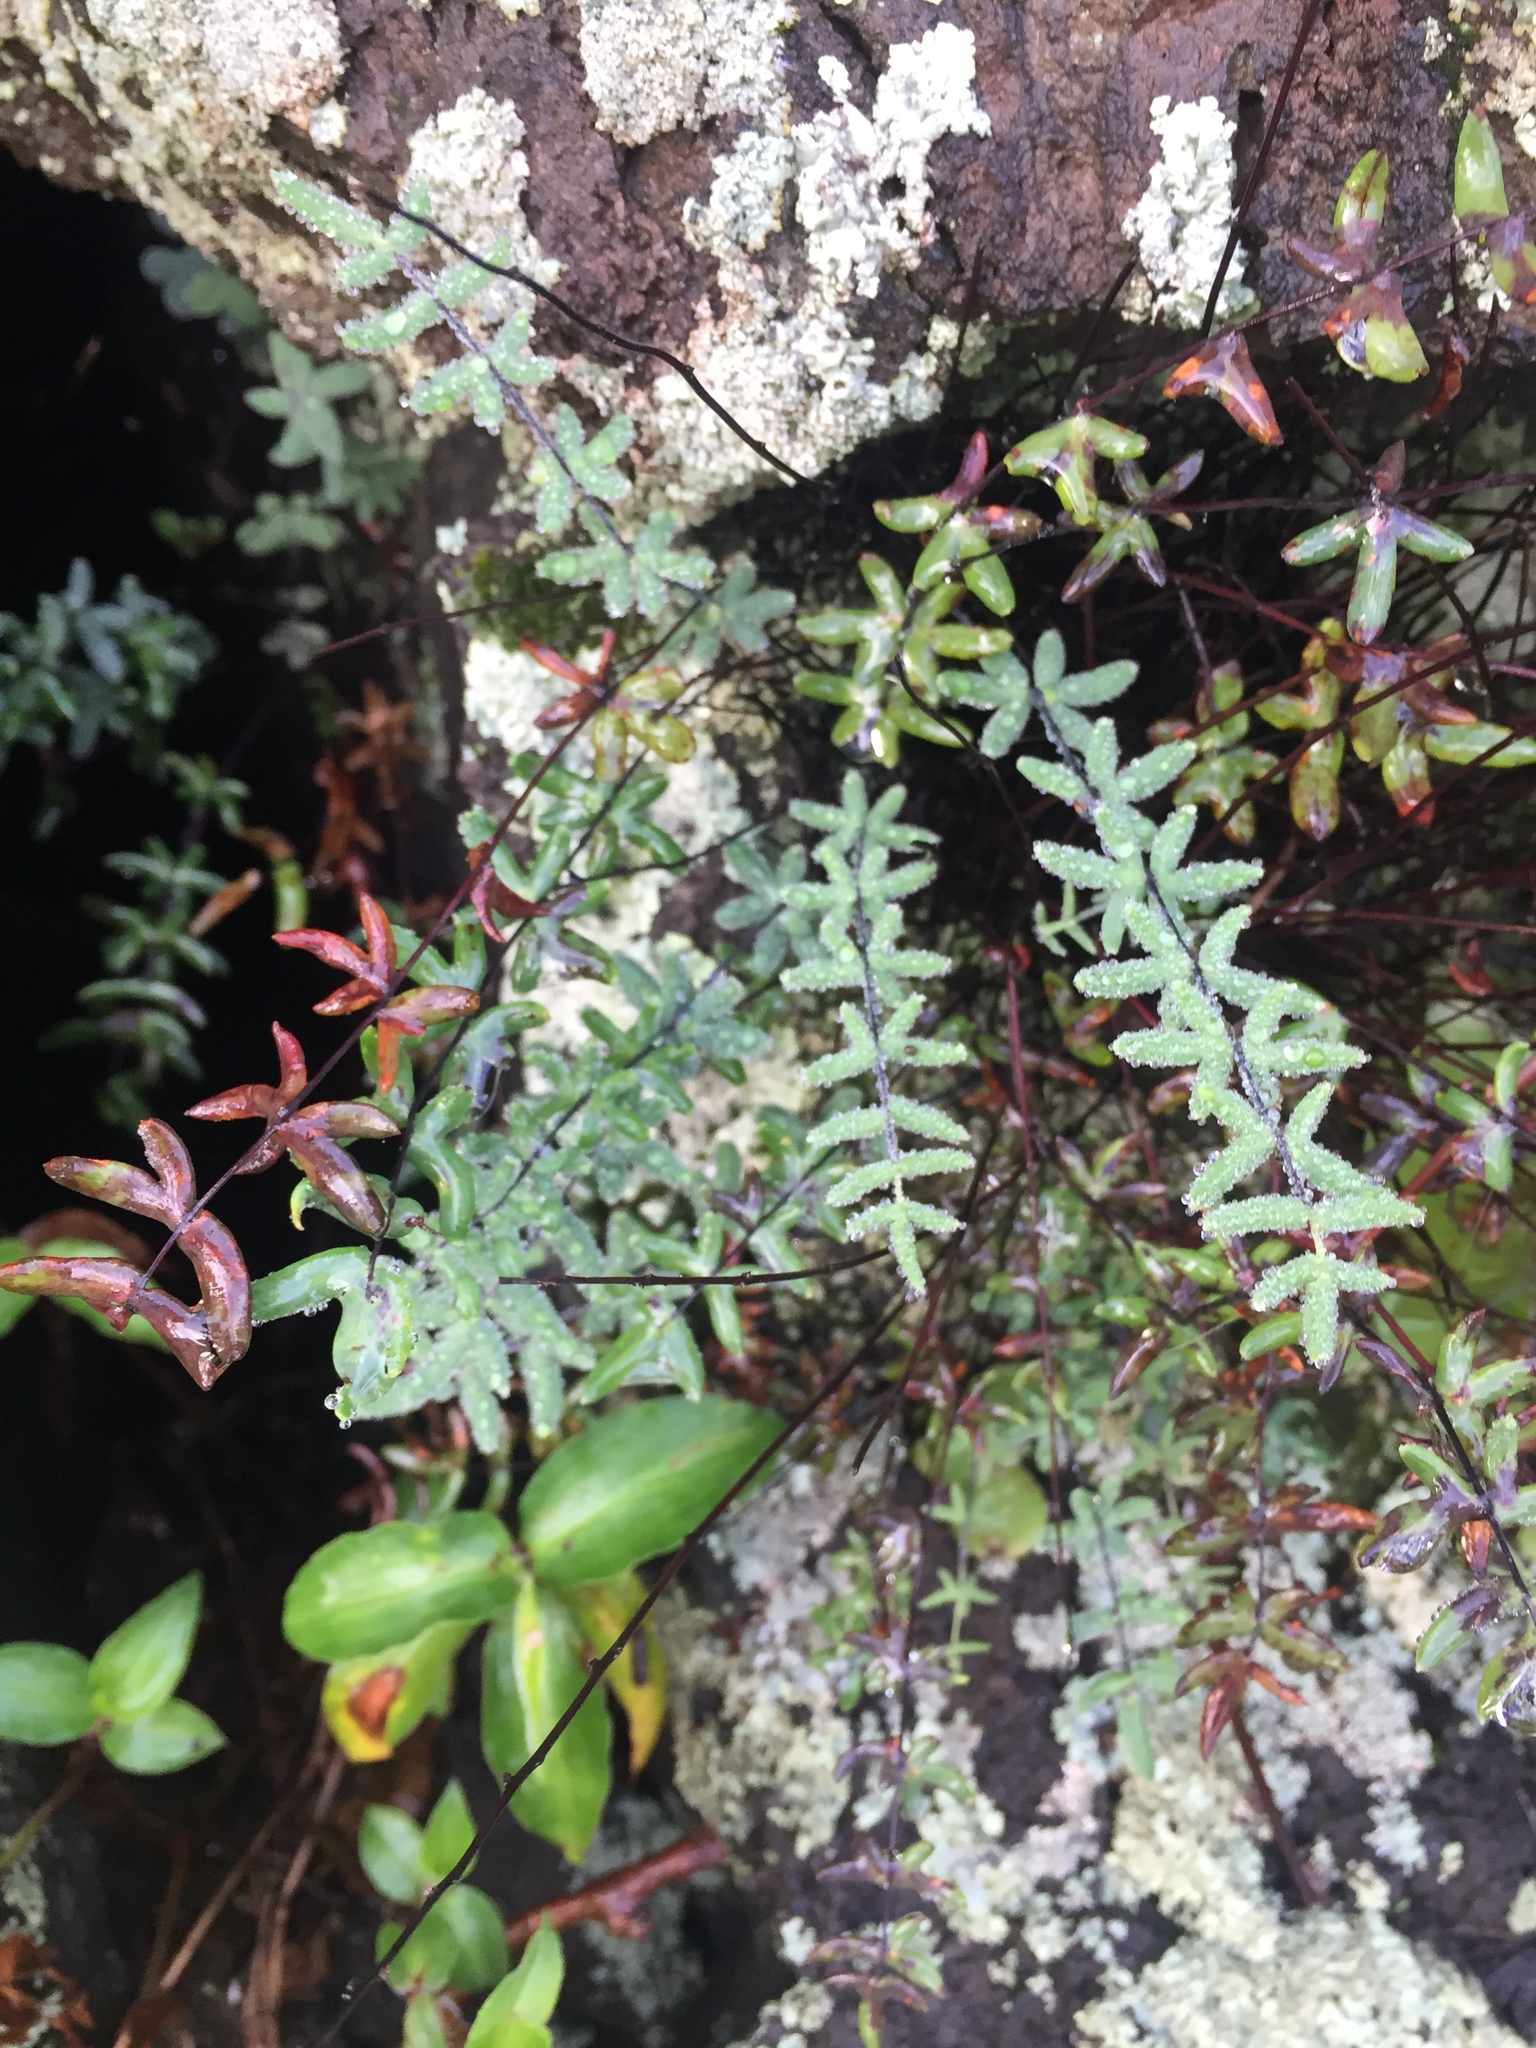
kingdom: Plantae
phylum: Tracheophyta
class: Polypodiopsida
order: Polypodiales
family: Pteridaceae
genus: Pellaea
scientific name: Pellaea ternifolia
